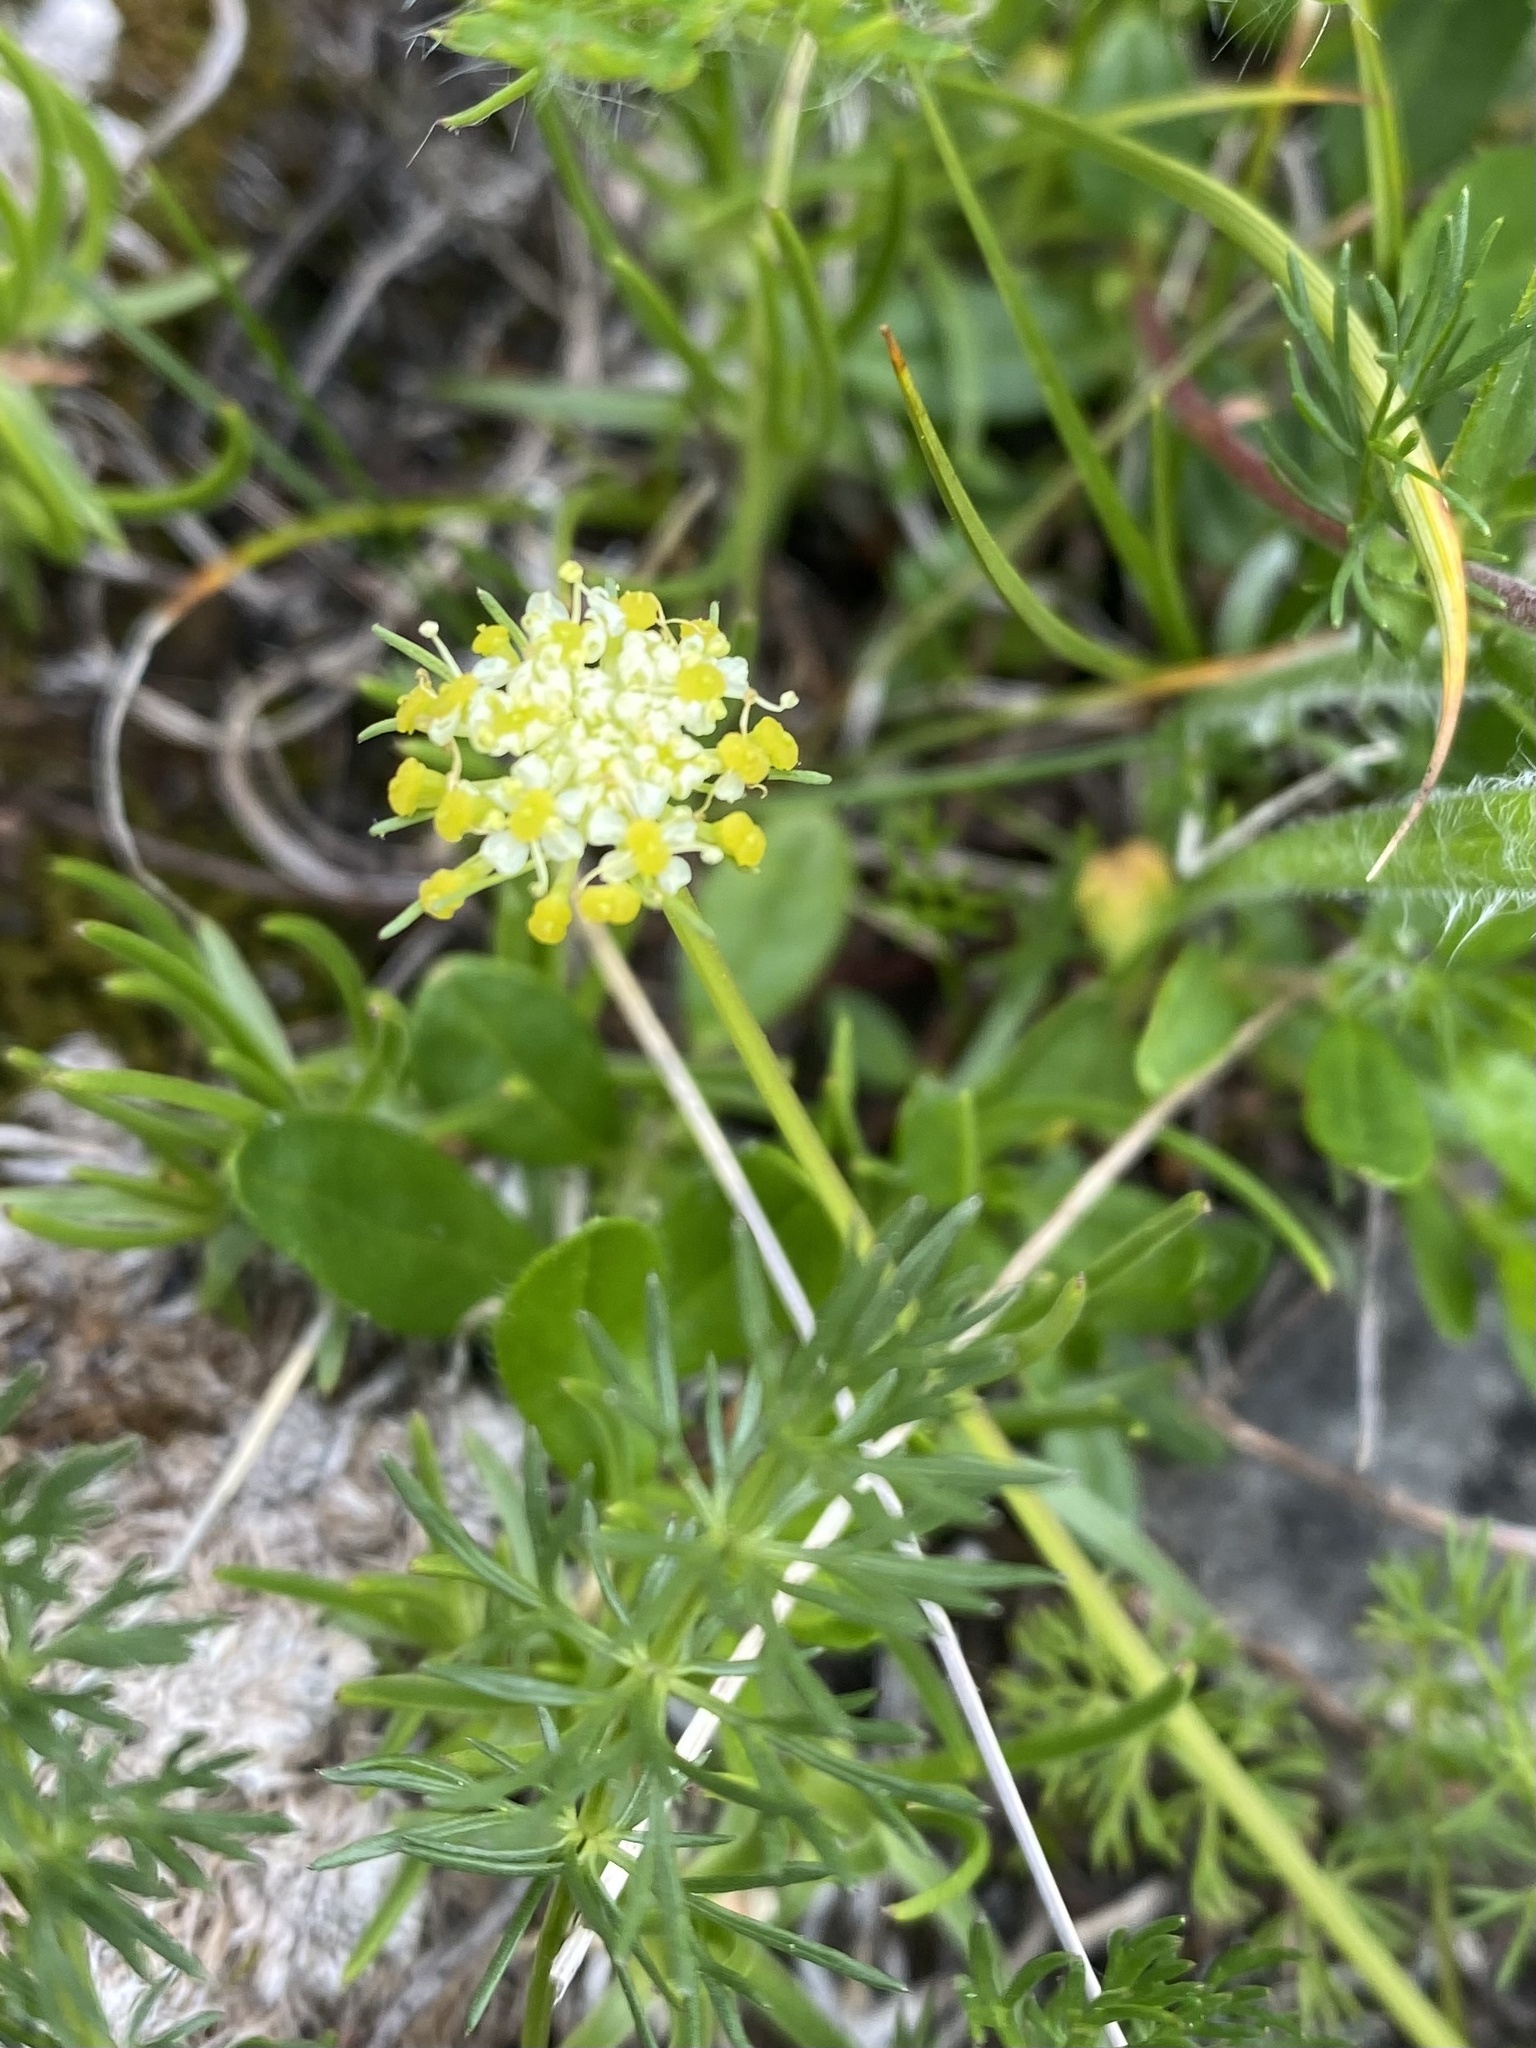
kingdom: Plantae
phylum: Tracheophyta
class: Magnoliopsida
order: Apiales
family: Apiaceae
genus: Chamaesciadium
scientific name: Chamaesciadium acaule
